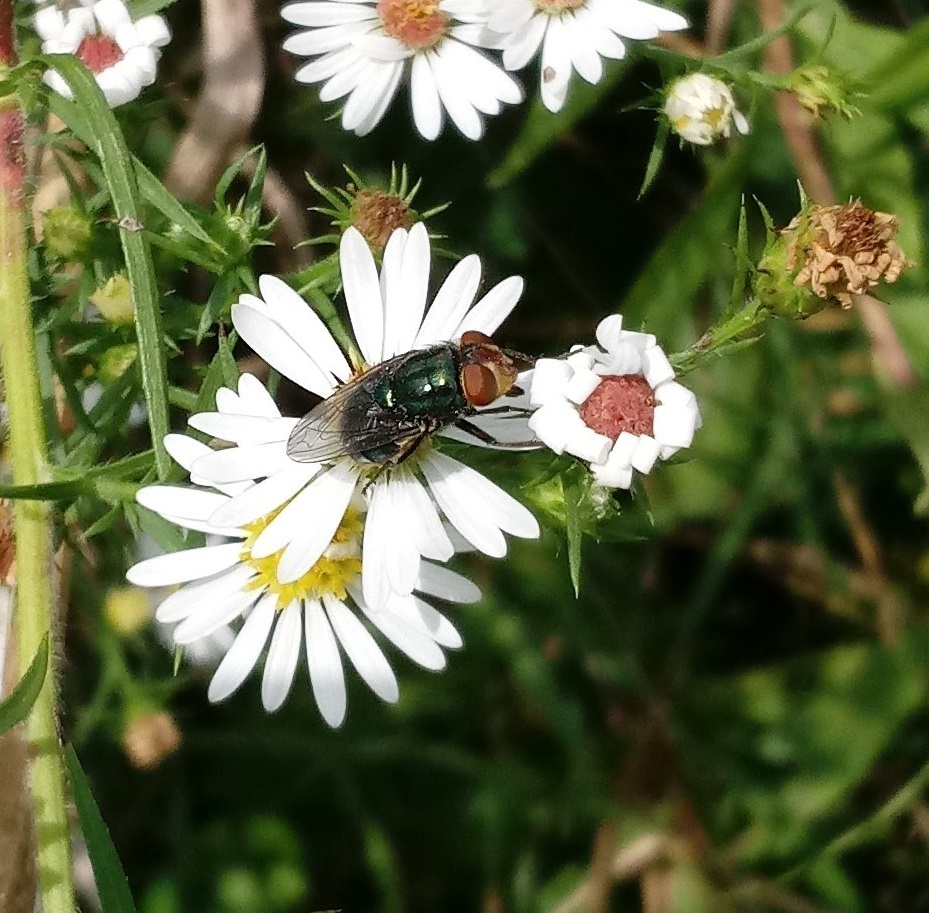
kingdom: Animalia
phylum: Arthropoda
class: Insecta
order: Diptera
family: Calliphoridae
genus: Cochliomyia
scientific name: Cochliomyia macellaria
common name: Secondary screwworm
